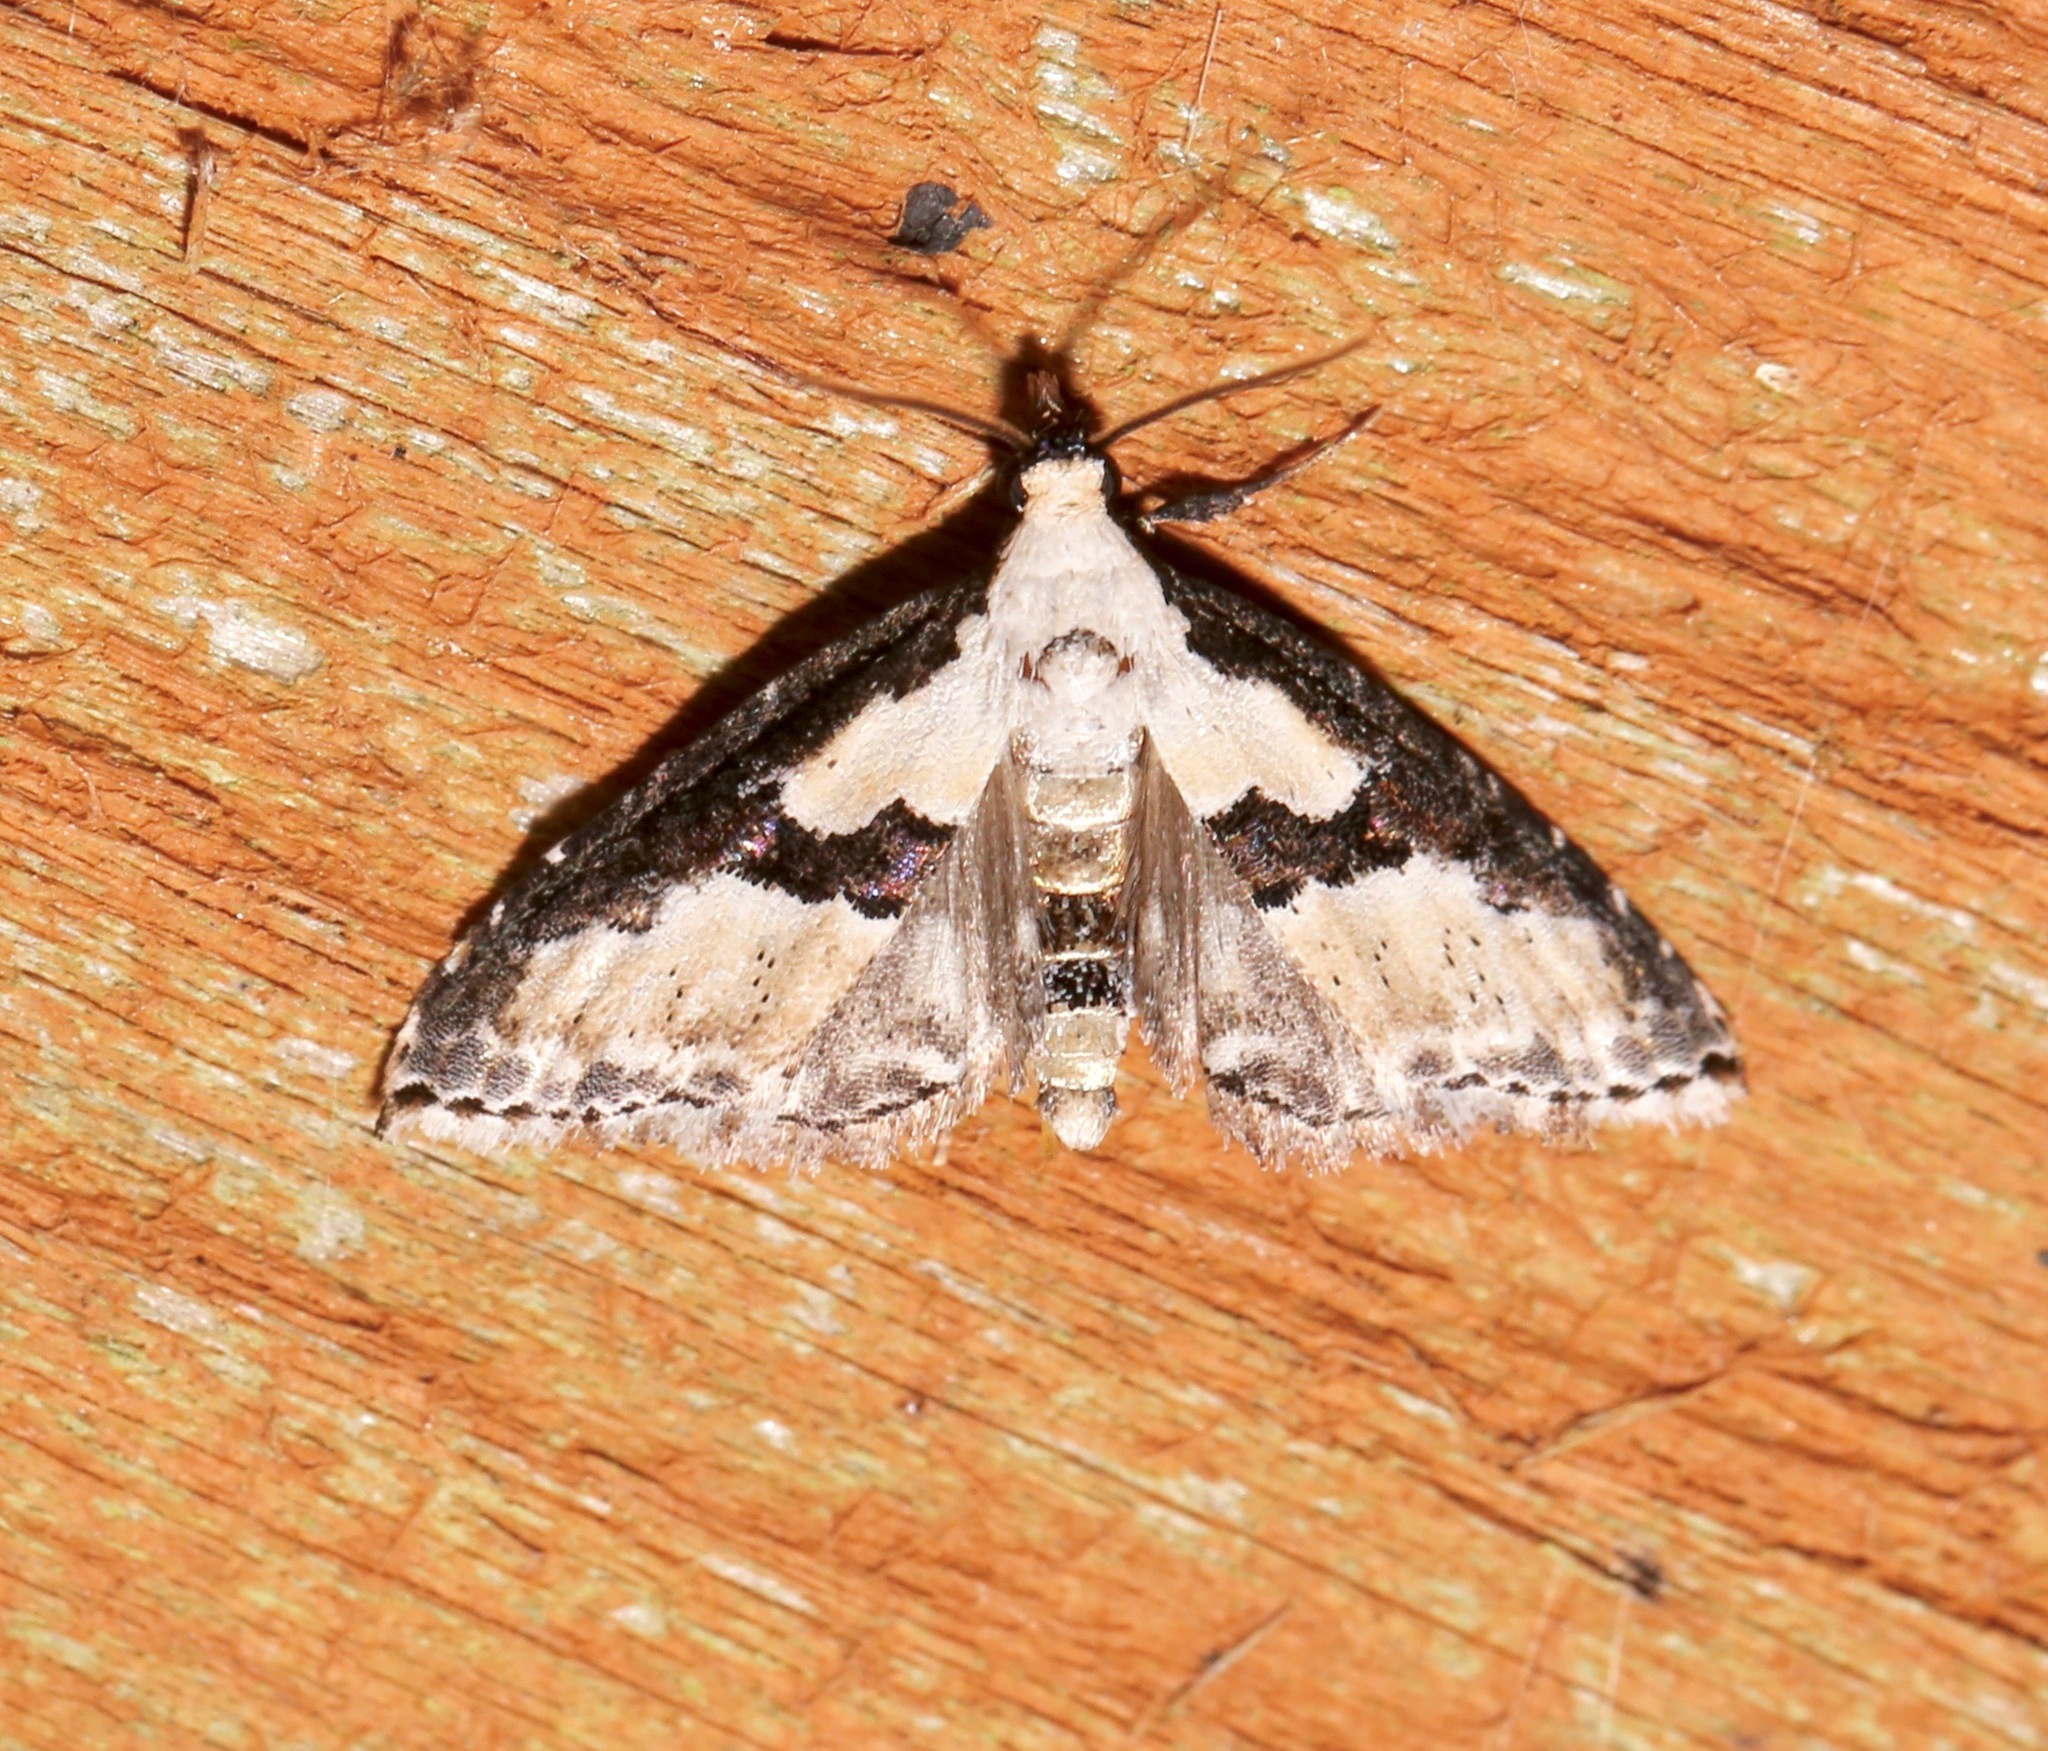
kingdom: Animalia
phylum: Arthropoda
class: Insecta
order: Lepidoptera
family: Noctuidae
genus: Nigetia
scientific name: Nigetia formosalis
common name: Thin-winged owlet
